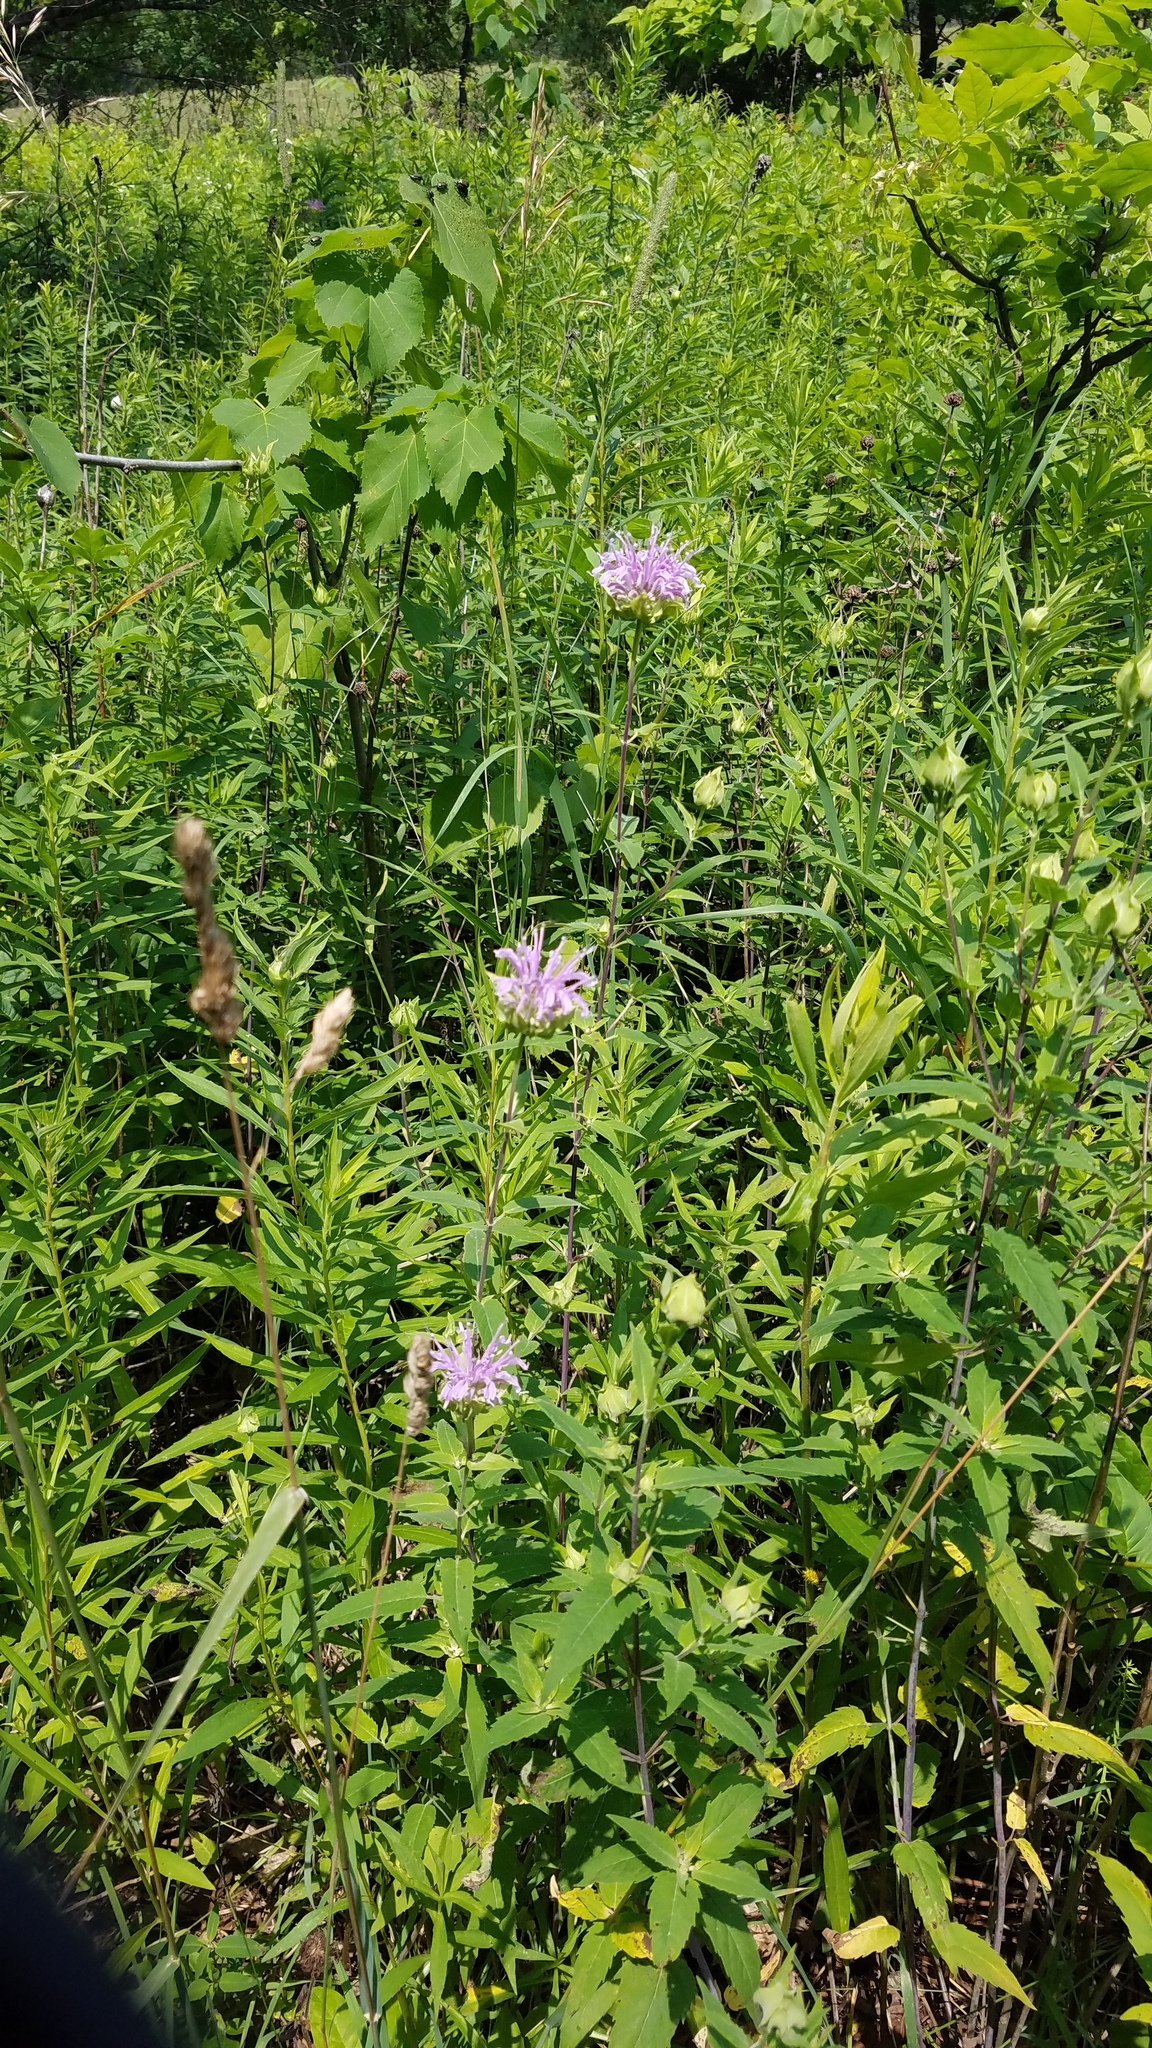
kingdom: Plantae
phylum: Tracheophyta
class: Magnoliopsida
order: Lamiales
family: Lamiaceae
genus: Monarda
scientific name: Monarda fistulosa
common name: Purple beebalm
